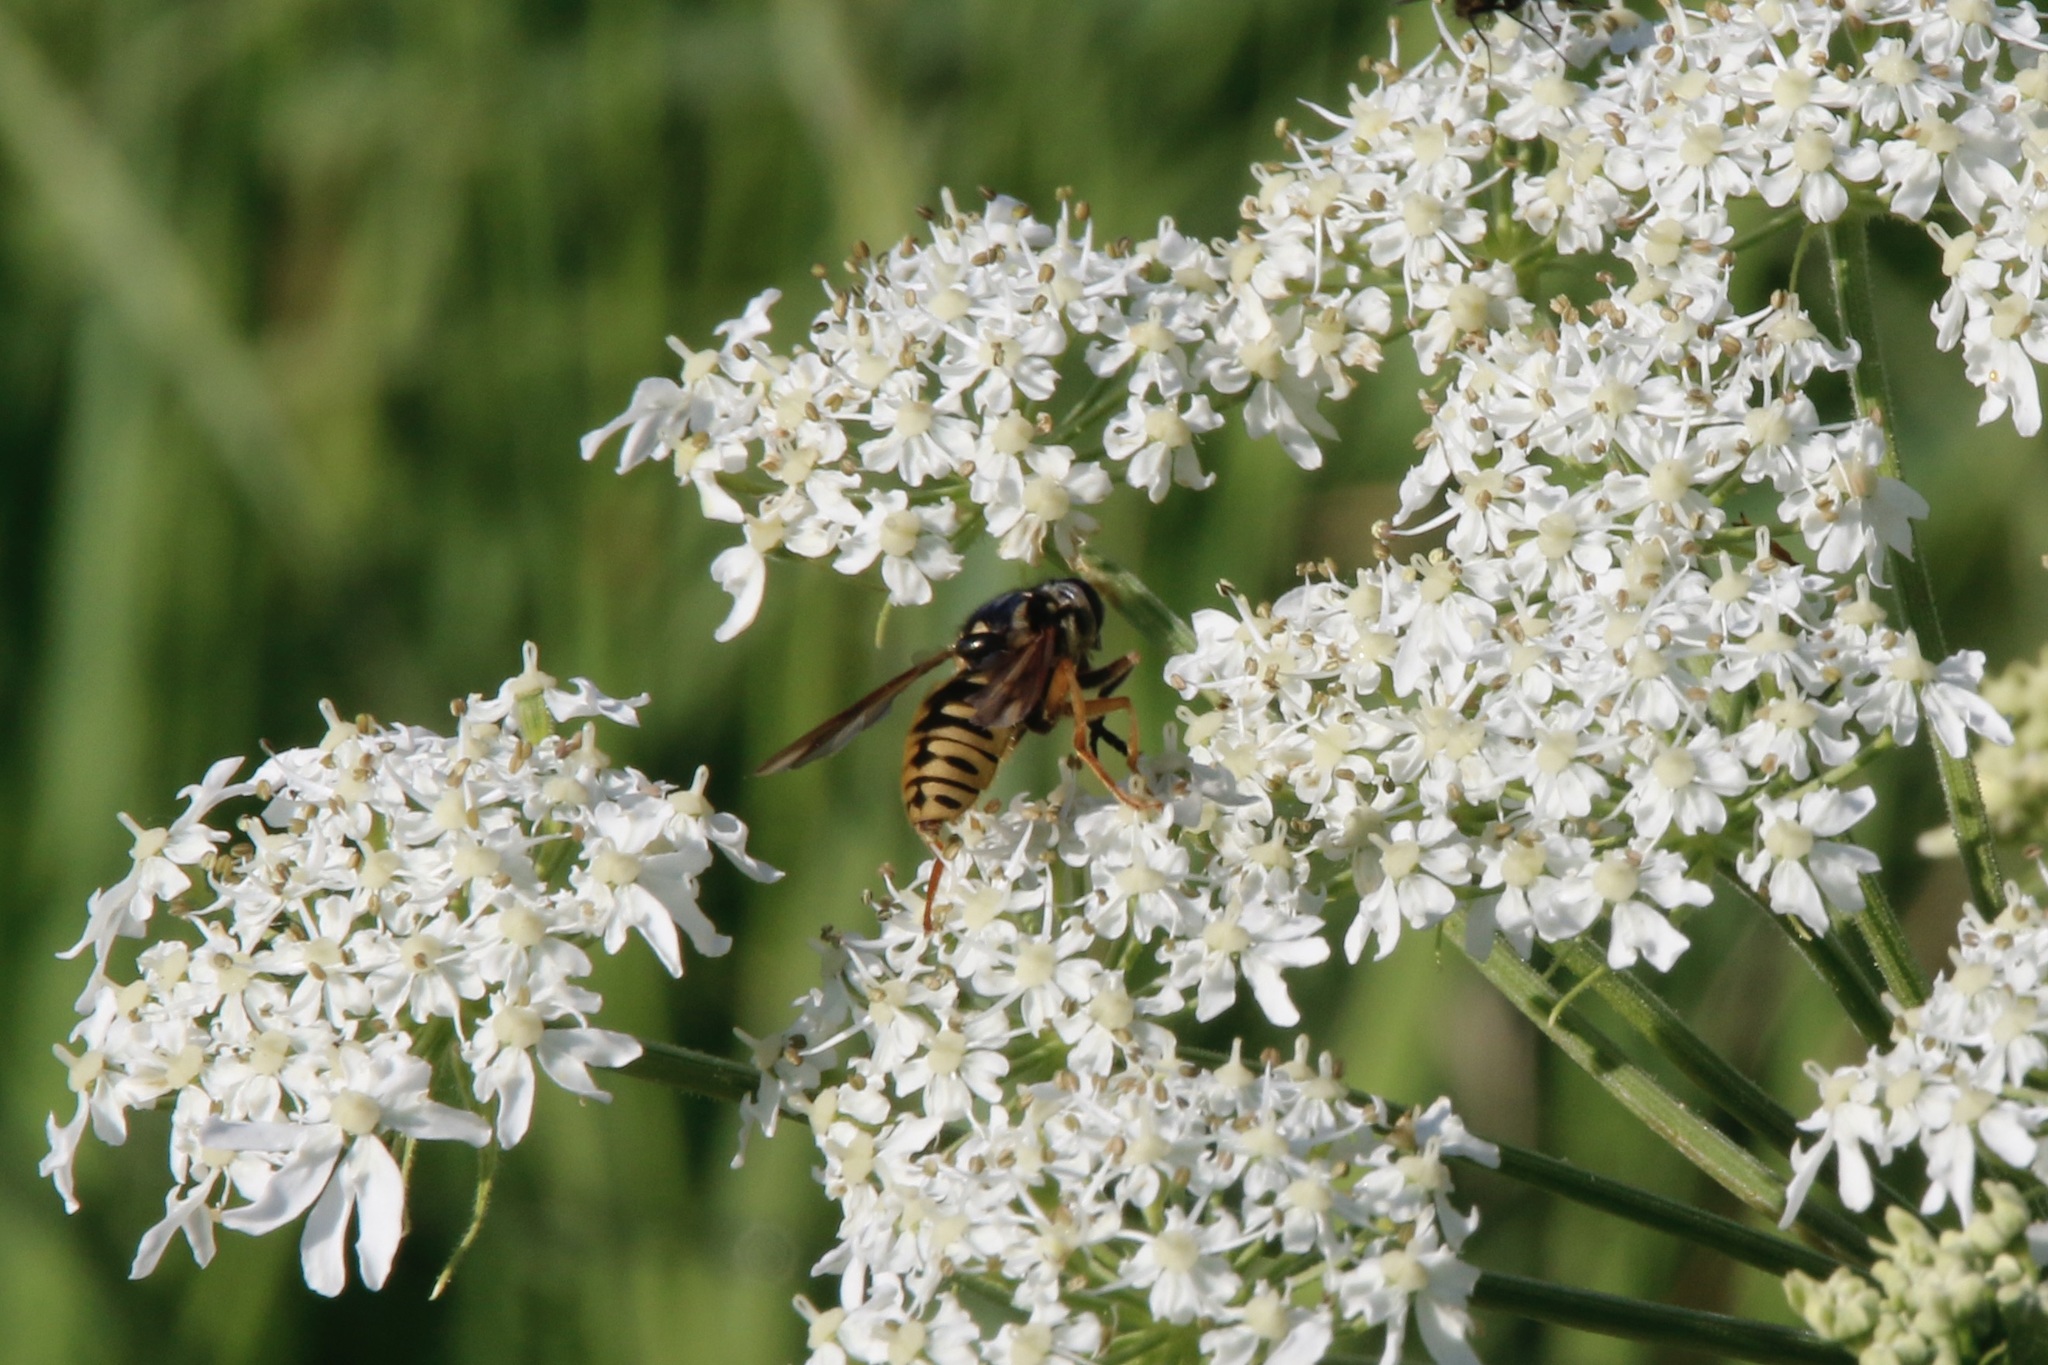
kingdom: Animalia
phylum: Arthropoda
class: Insecta
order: Diptera
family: Syrphidae
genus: Temnostoma
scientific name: Temnostoma alternans
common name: Wasp-like falsehorn
